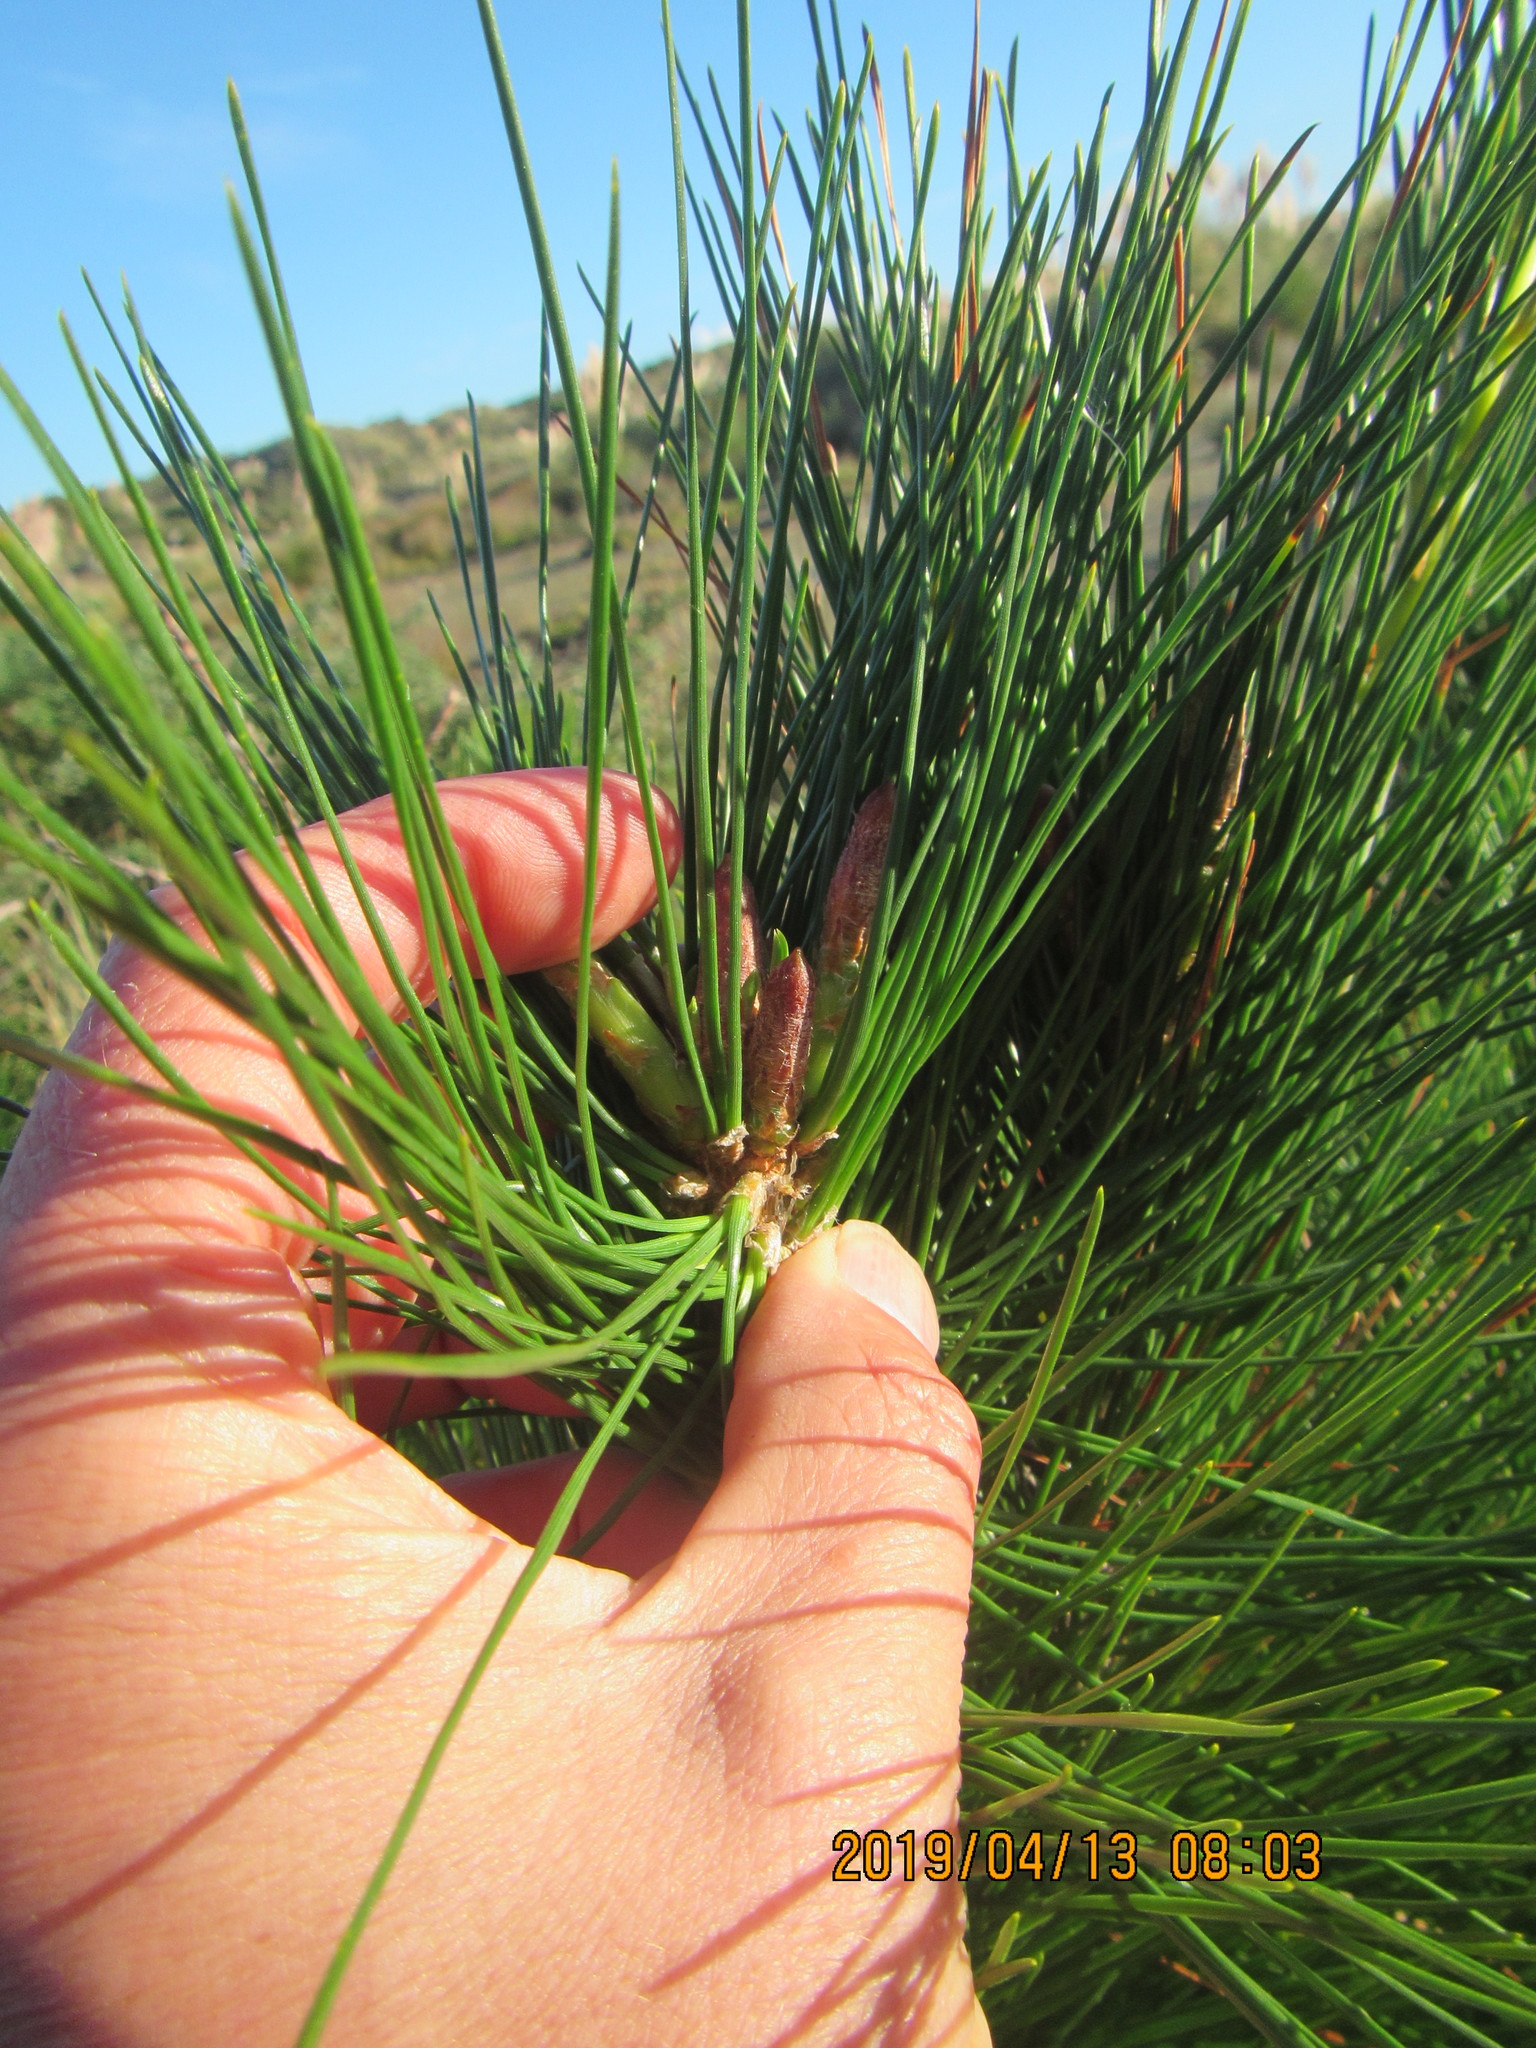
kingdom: Plantae
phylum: Tracheophyta
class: Pinopsida
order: Pinales
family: Pinaceae
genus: Pinus
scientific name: Pinus radiata
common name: Monterey pine
